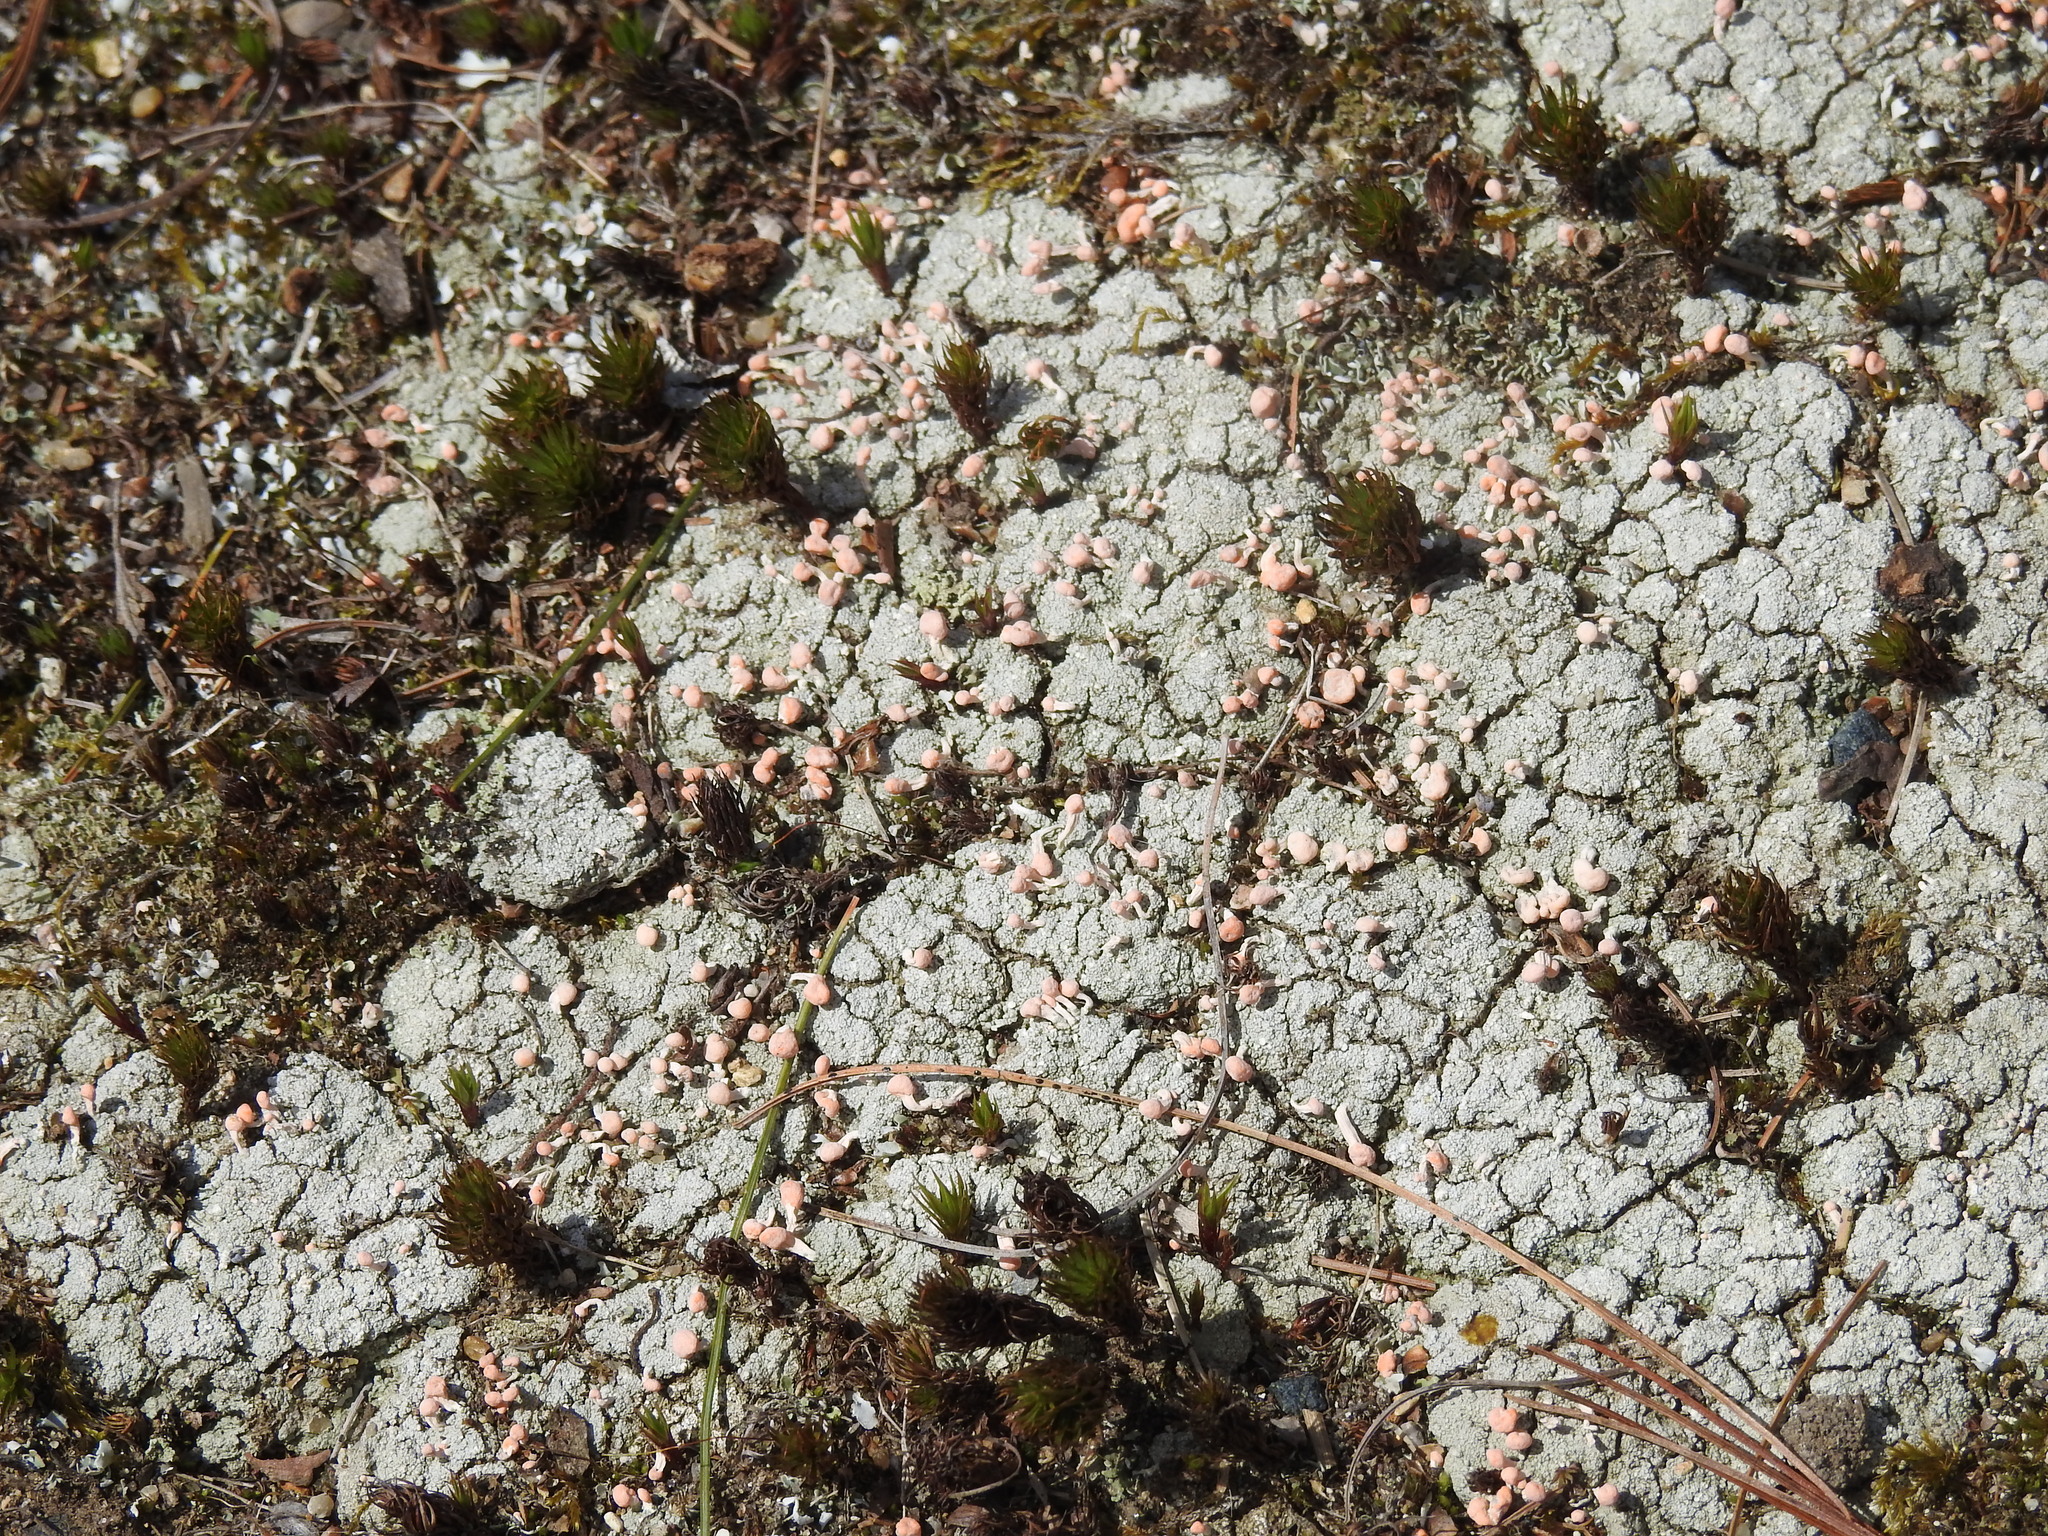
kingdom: Fungi
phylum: Ascomycota
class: Lecanoromycetes
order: Pertusariales
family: Icmadophilaceae
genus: Dibaeis
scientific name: Dibaeis baeomyces
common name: Pink earth lichen
